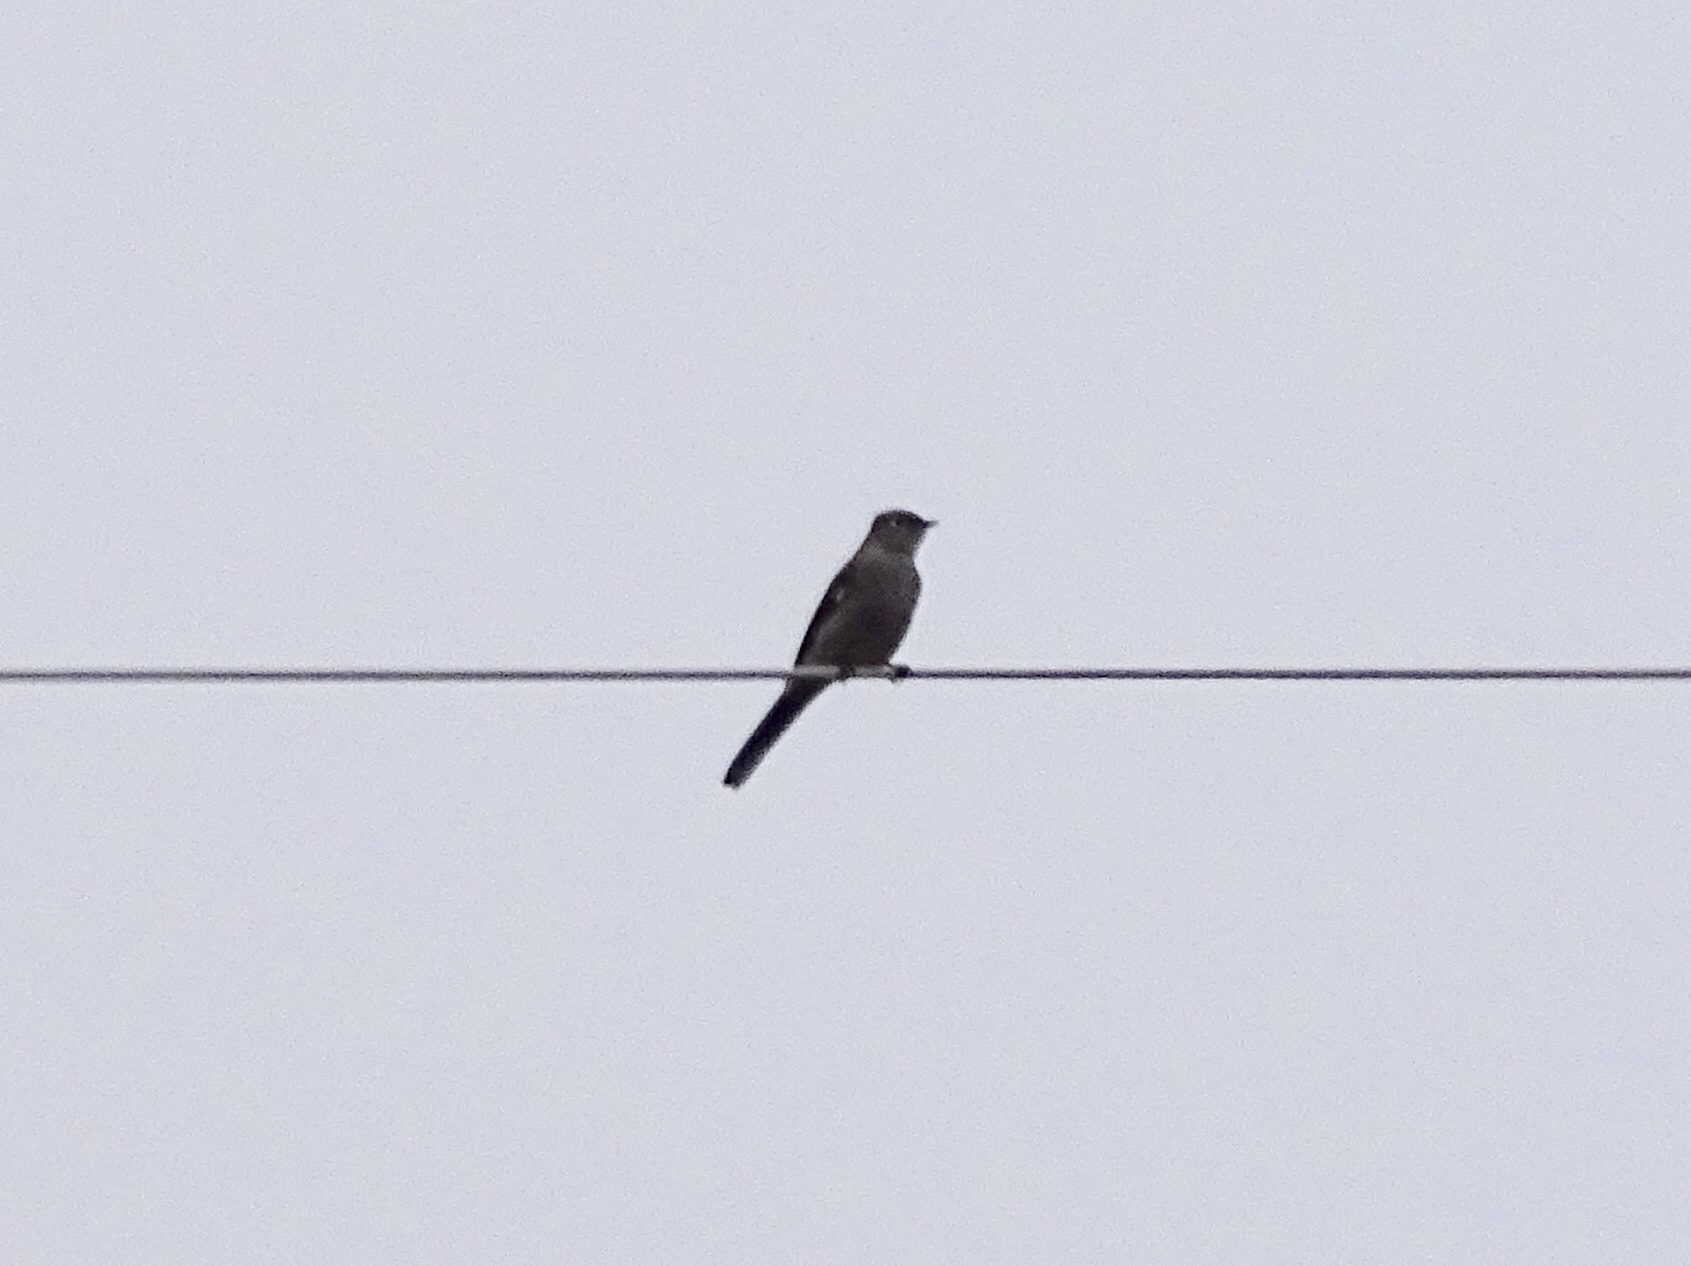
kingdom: Animalia
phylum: Chordata
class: Aves
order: Passeriformes
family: Turdidae
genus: Myadestes
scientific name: Myadestes townsendi
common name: Townsend's solitaire
